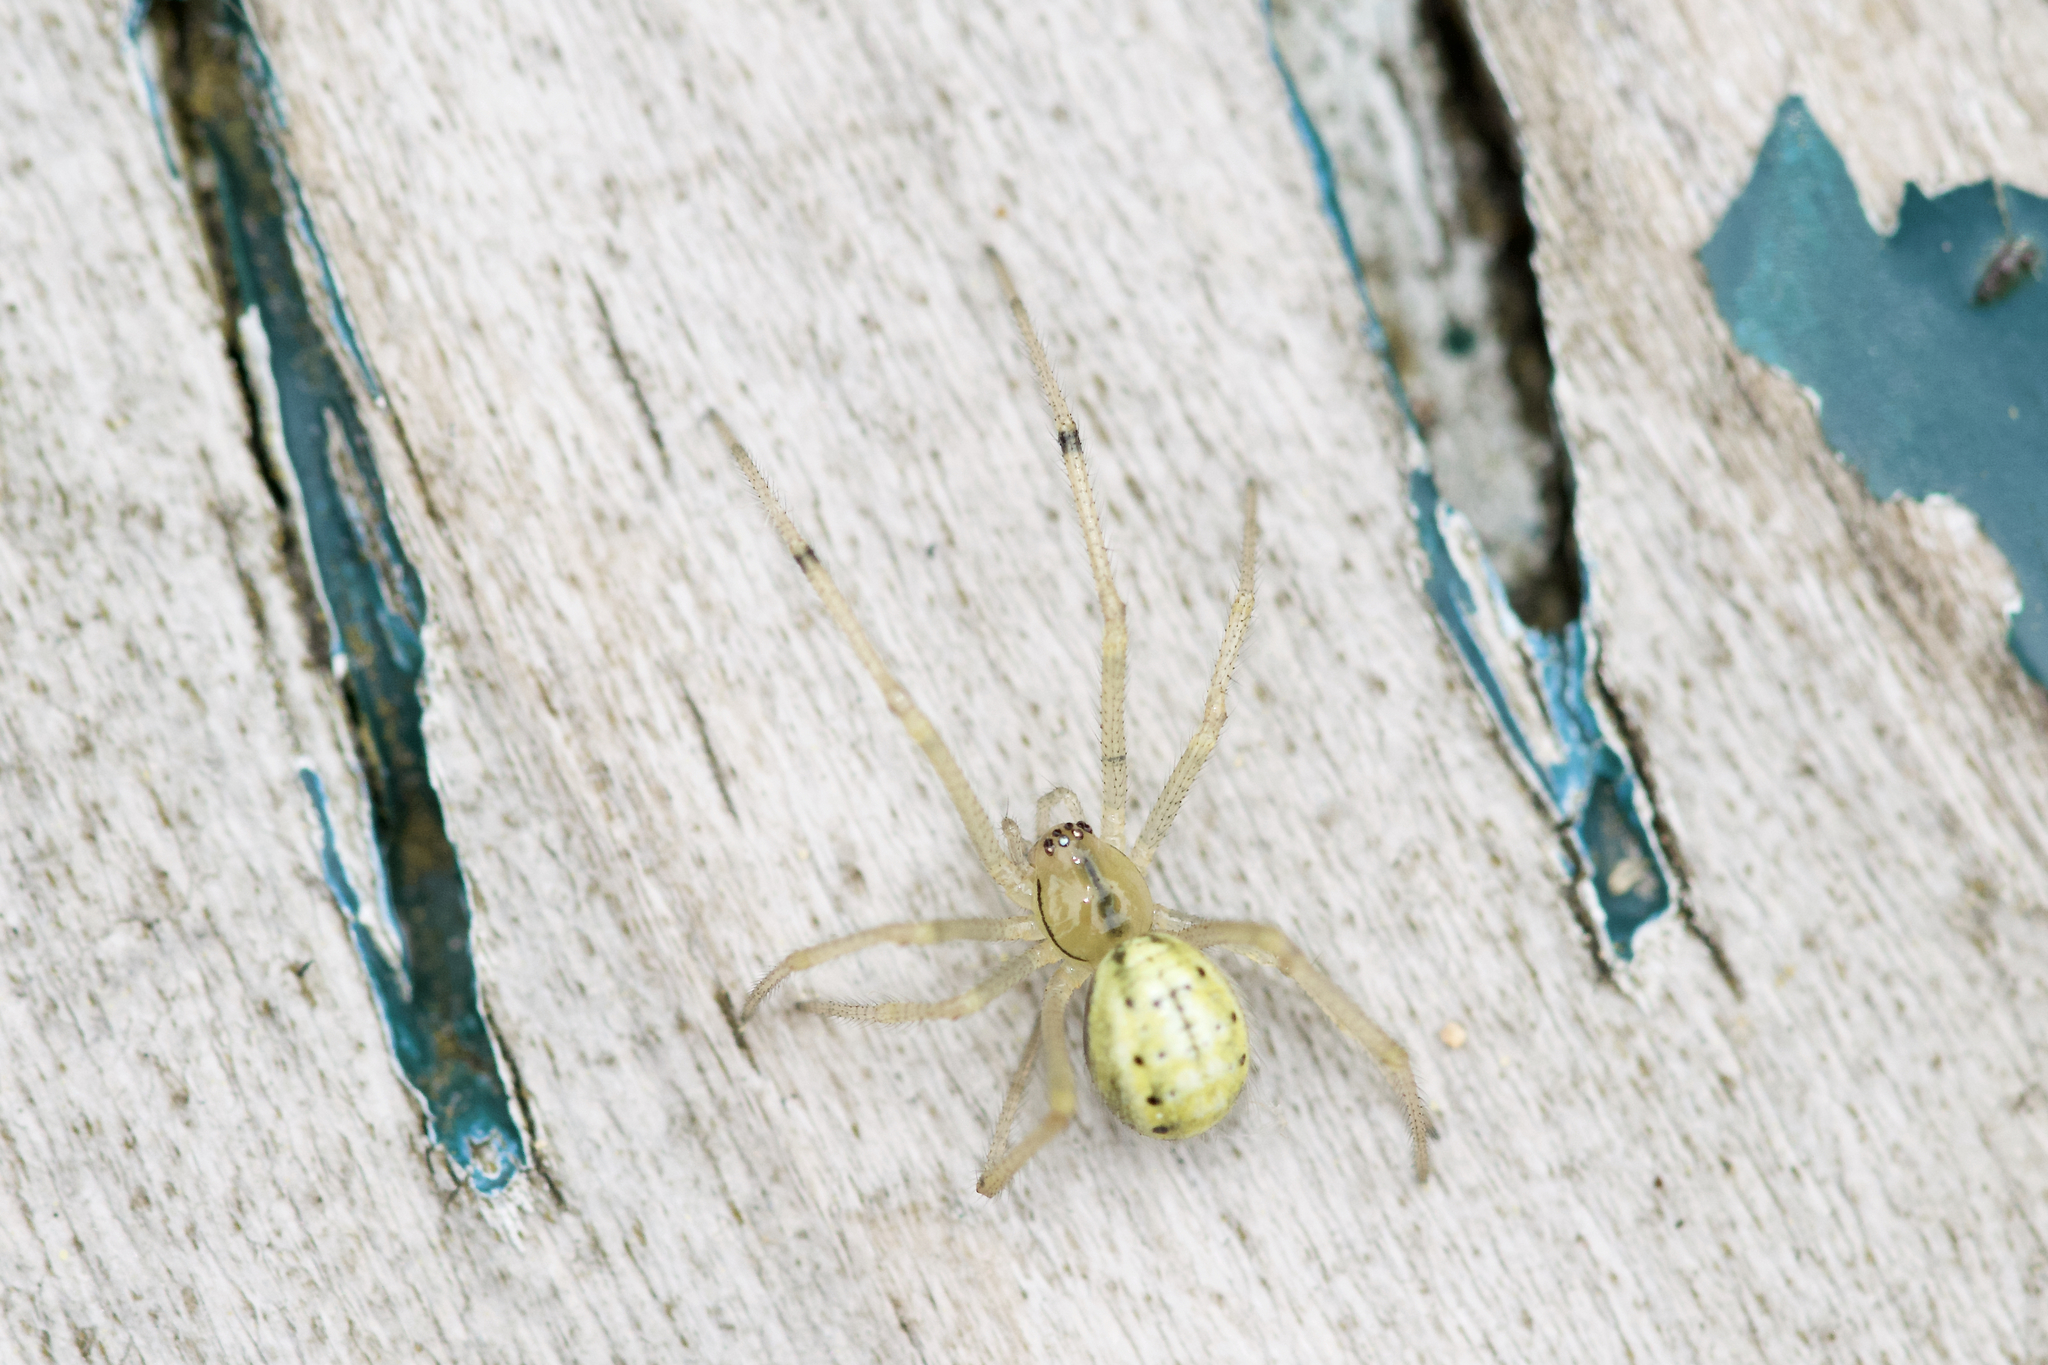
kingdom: Animalia
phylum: Arthropoda
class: Arachnida
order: Araneae
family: Theridiidae
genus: Enoplognatha
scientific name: Enoplognatha ovata
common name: Common candy-striped spider
